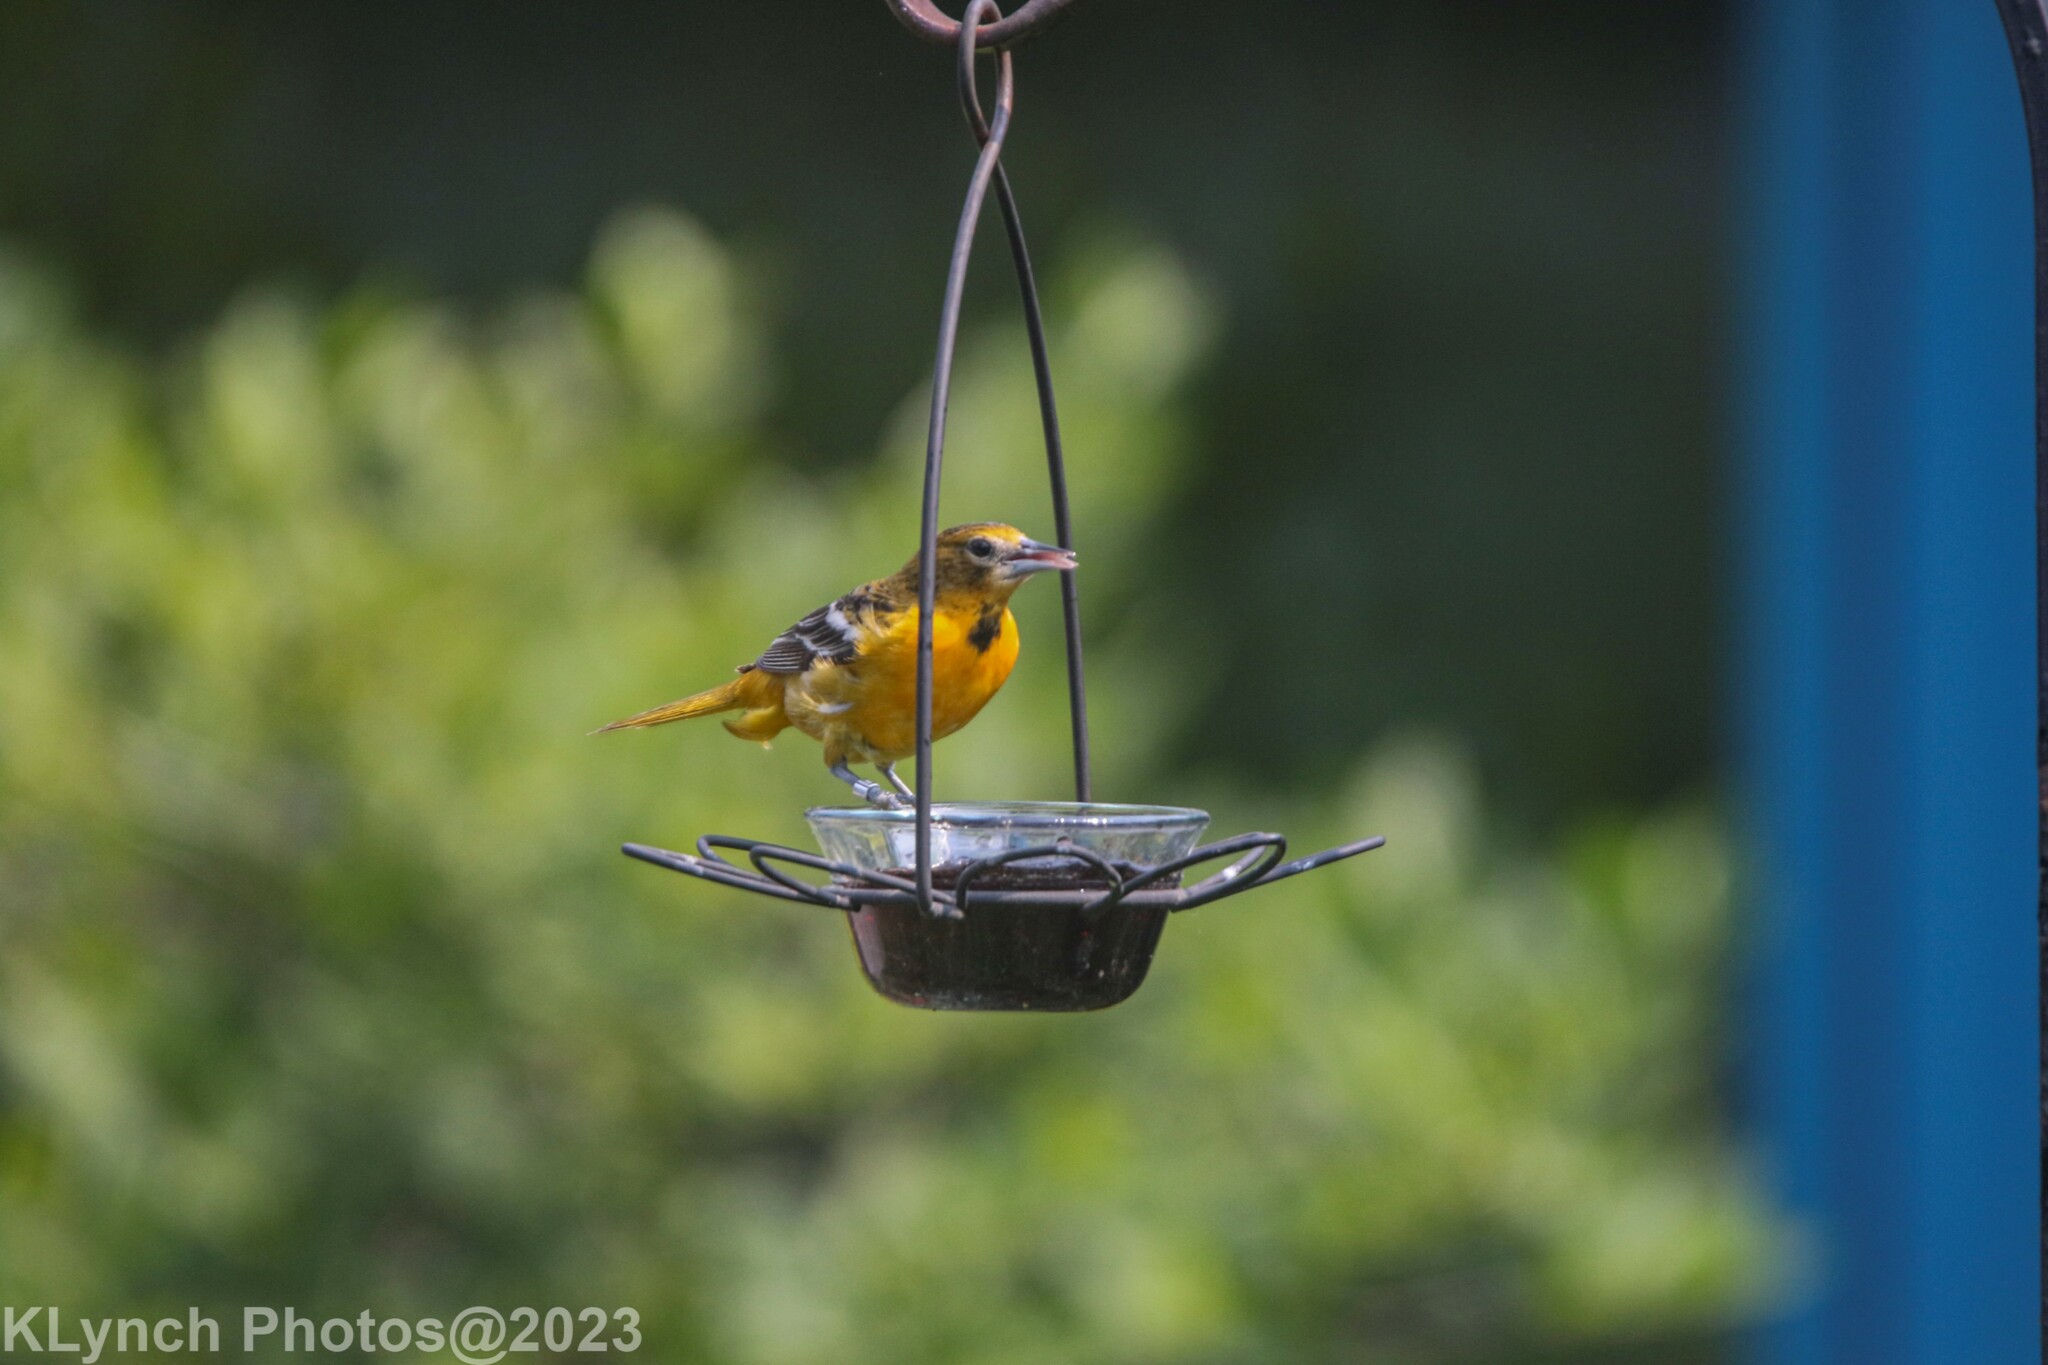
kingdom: Animalia
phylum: Chordata
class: Aves
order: Passeriformes
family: Icteridae
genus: Icterus
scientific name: Icterus galbula
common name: Baltimore oriole
